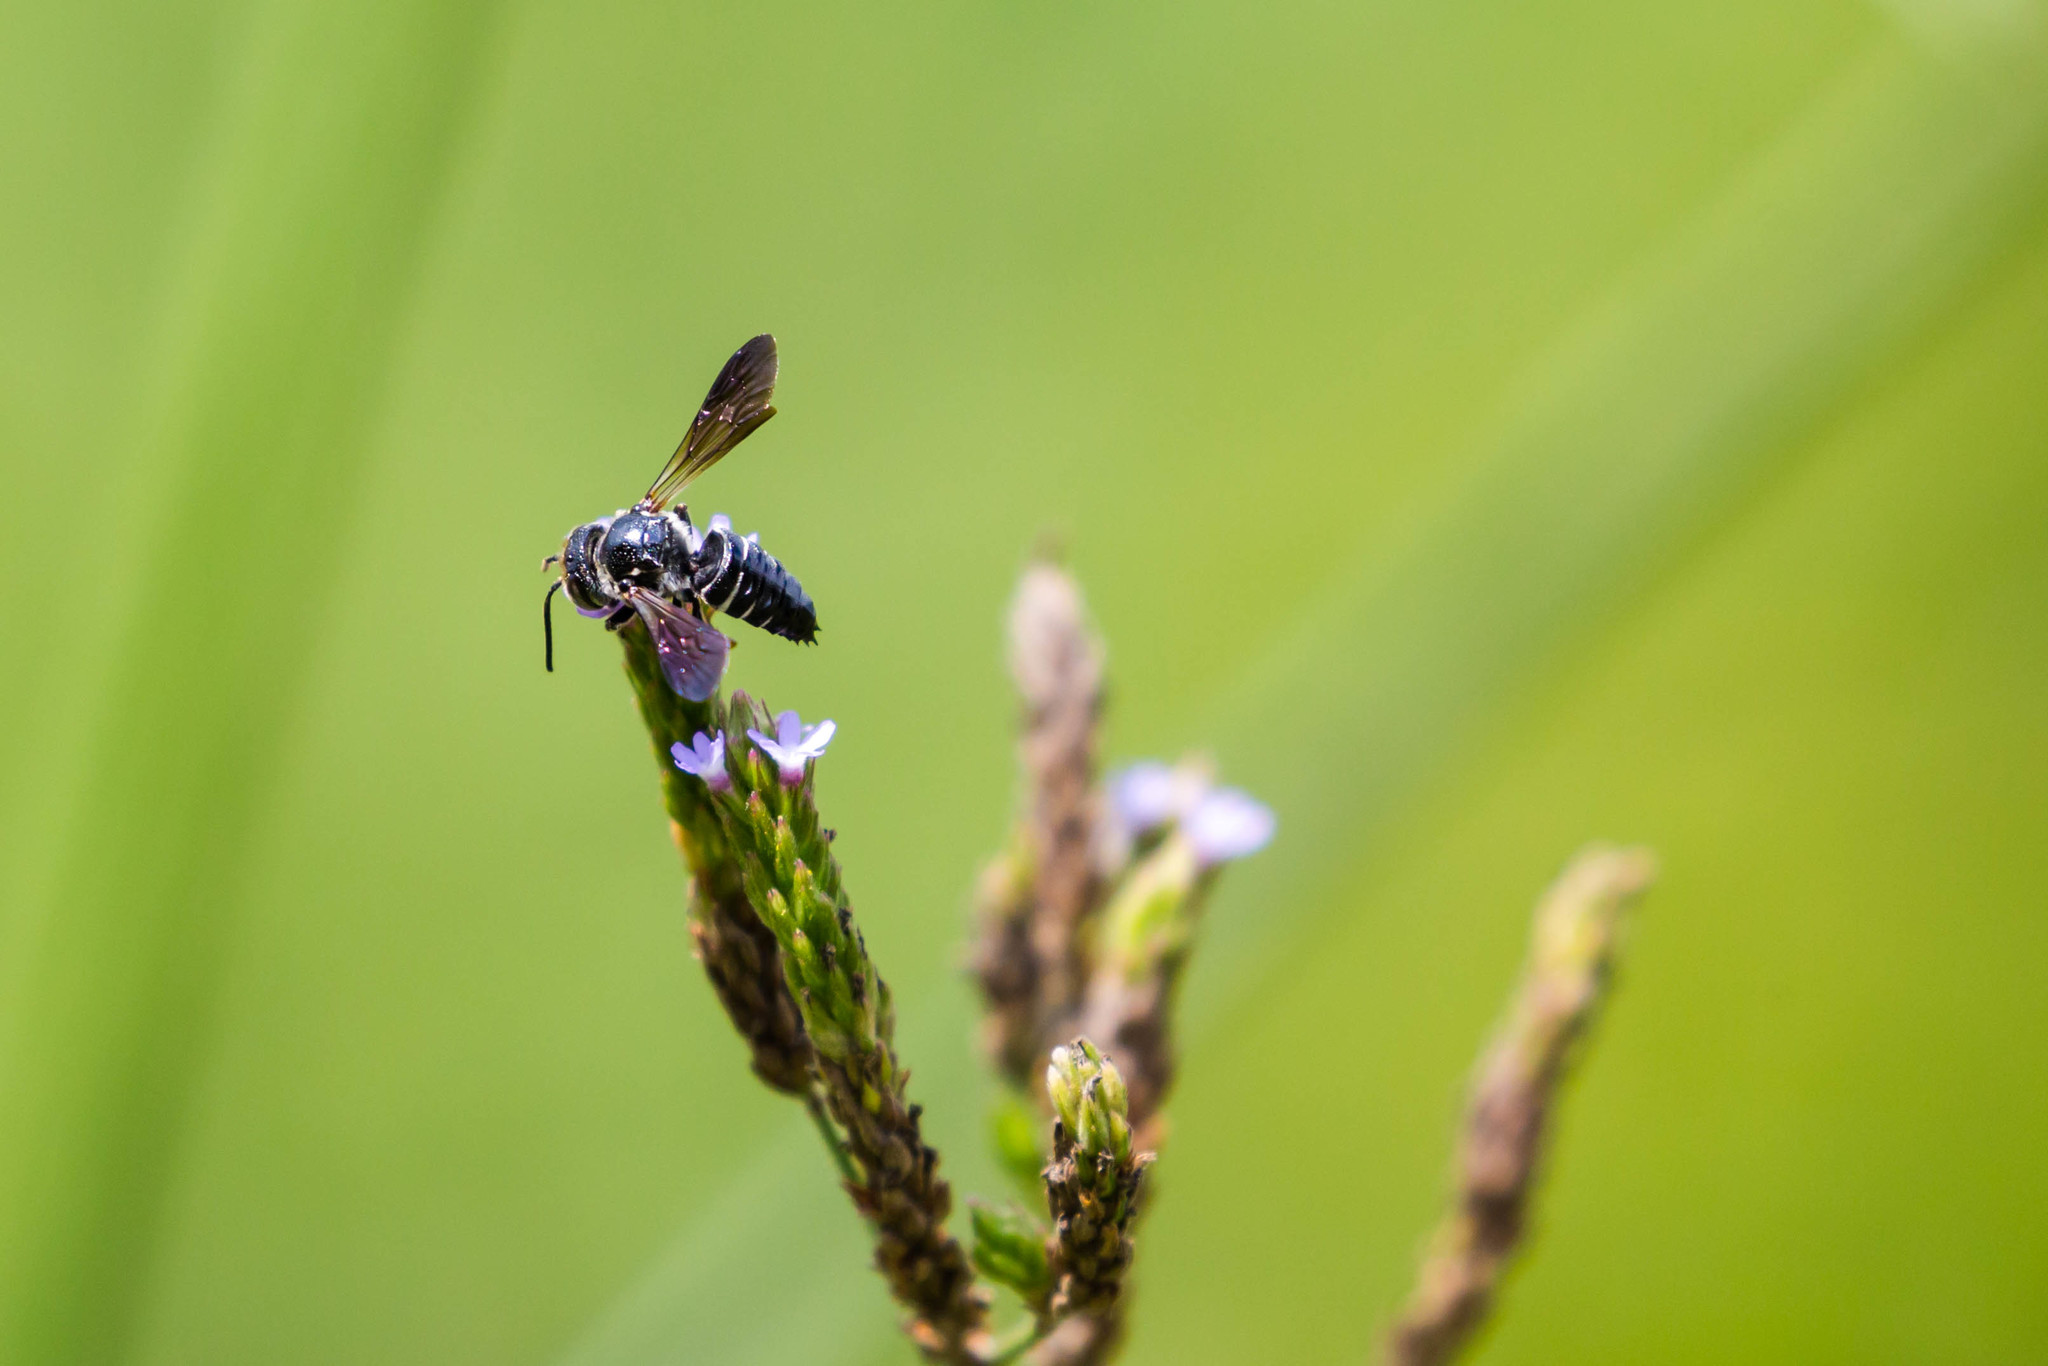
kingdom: Animalia
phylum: Arthropoda
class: Insecta
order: Hymenoptera
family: Megachilidae
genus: Coelioxys
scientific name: Coelioxys dolichos
